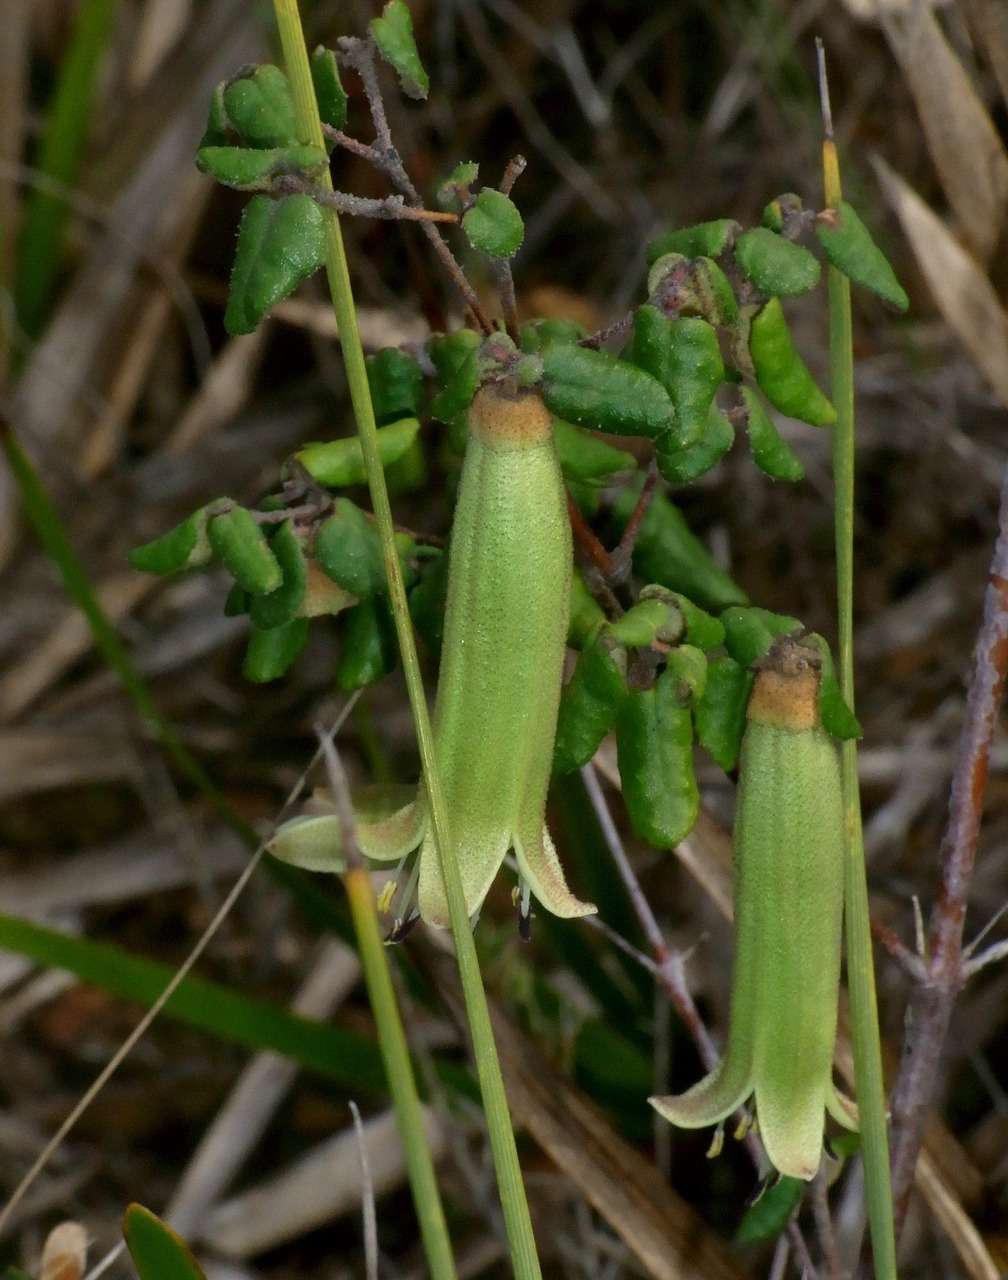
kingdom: Plantae
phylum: Tracheophyta
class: Magnoliopsida
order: Sapindales
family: Rutaceae
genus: Correa
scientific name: Correa reflexa
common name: Common correa
